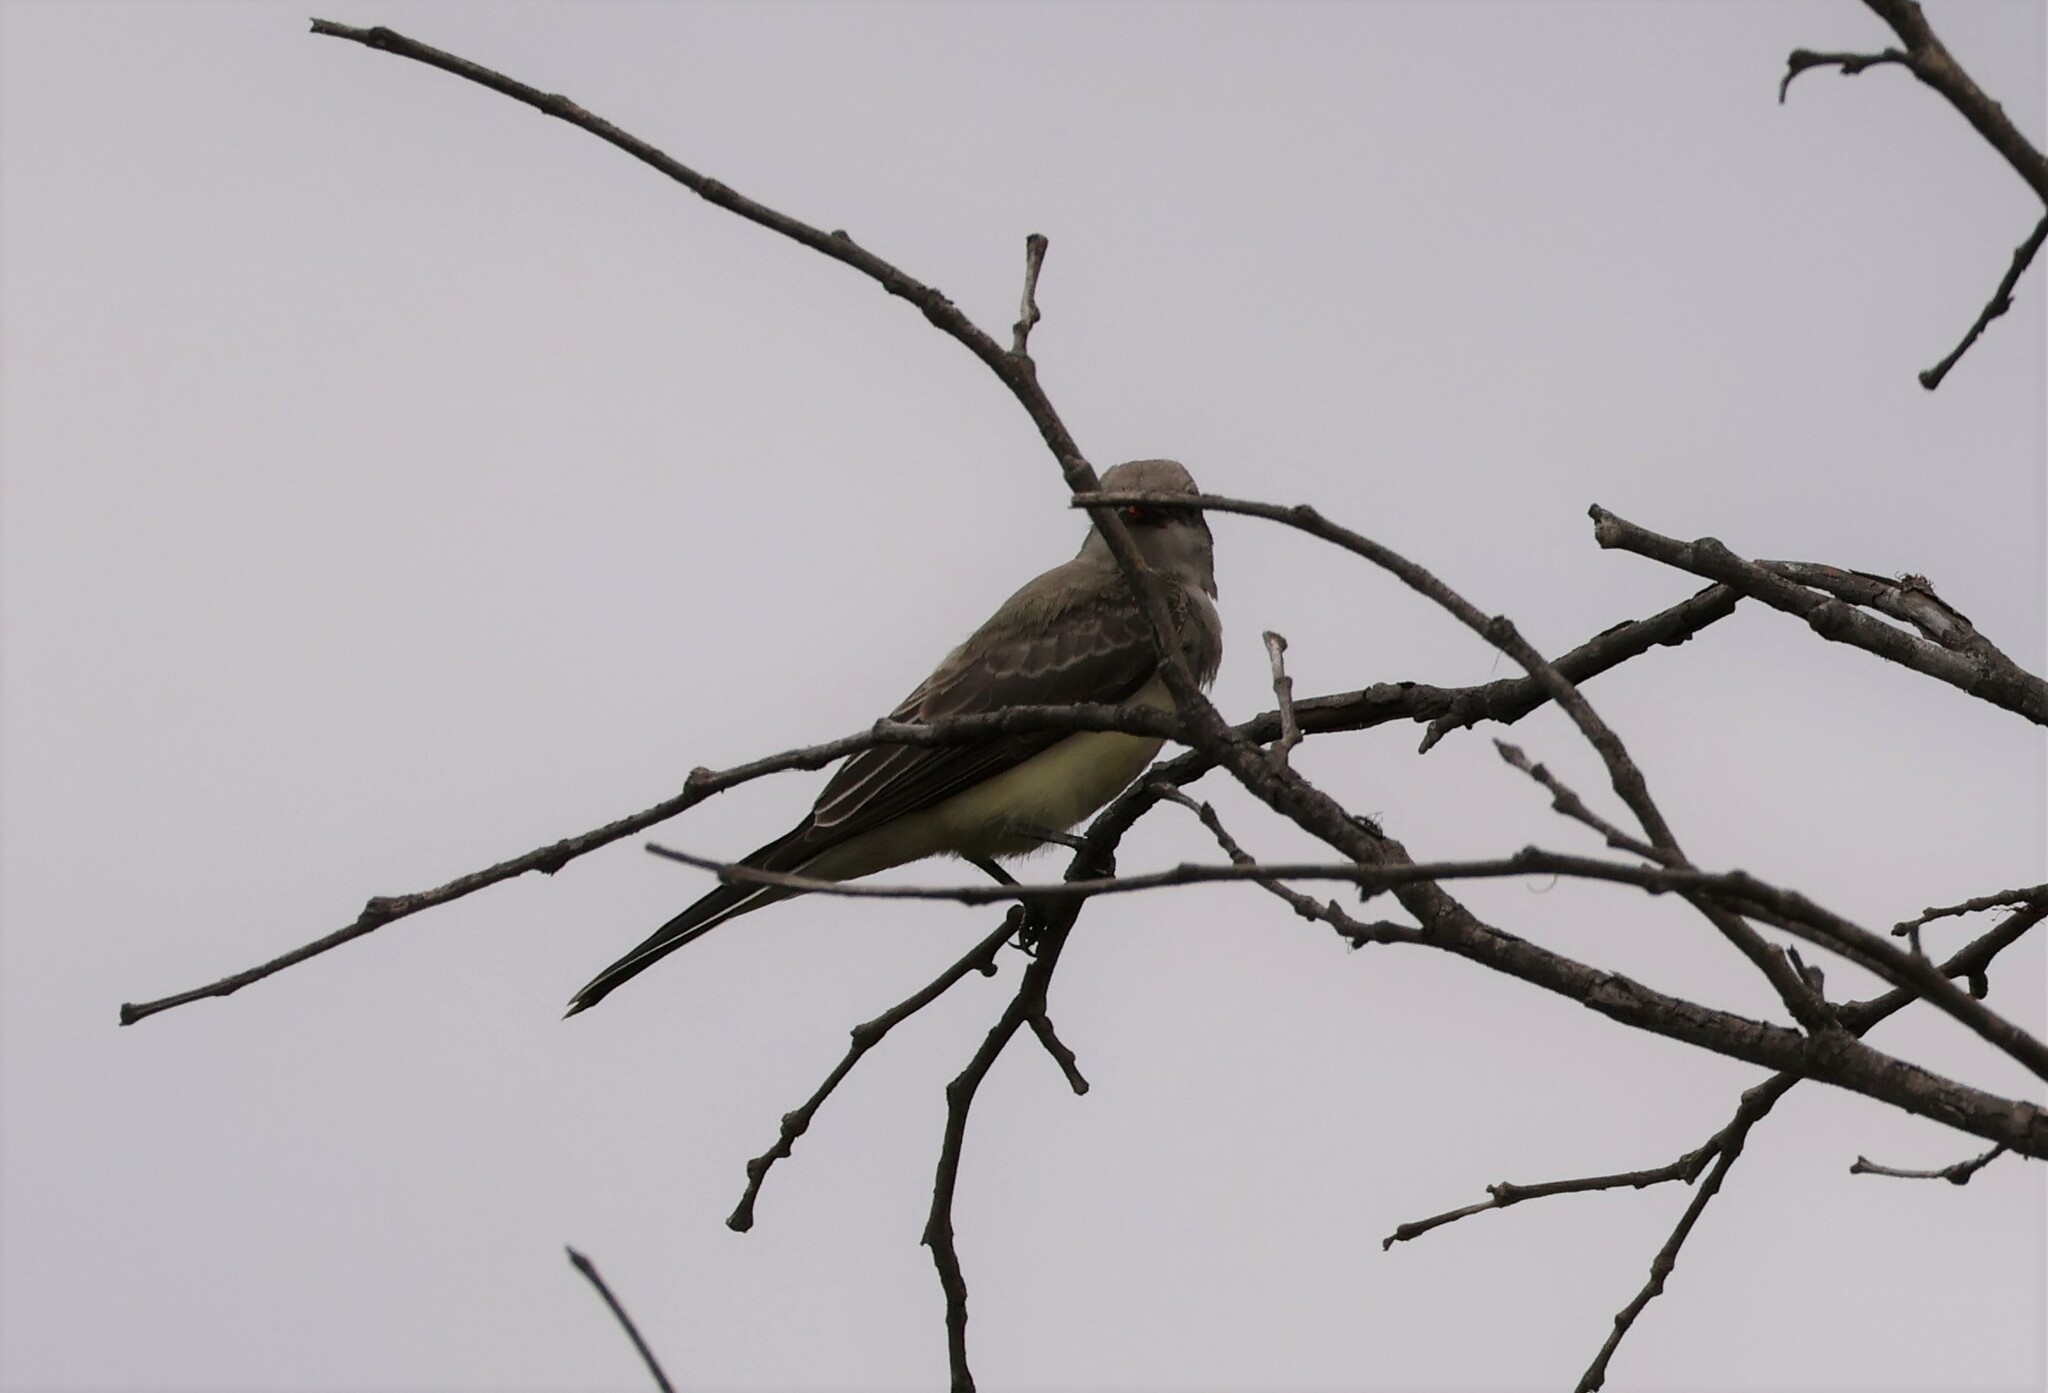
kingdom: Animalia
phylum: Chordata
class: Aves
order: Passeriformes
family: Tyrannidae
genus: Tyrannus
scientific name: Tyrannus verticalis
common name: Western kingbird
